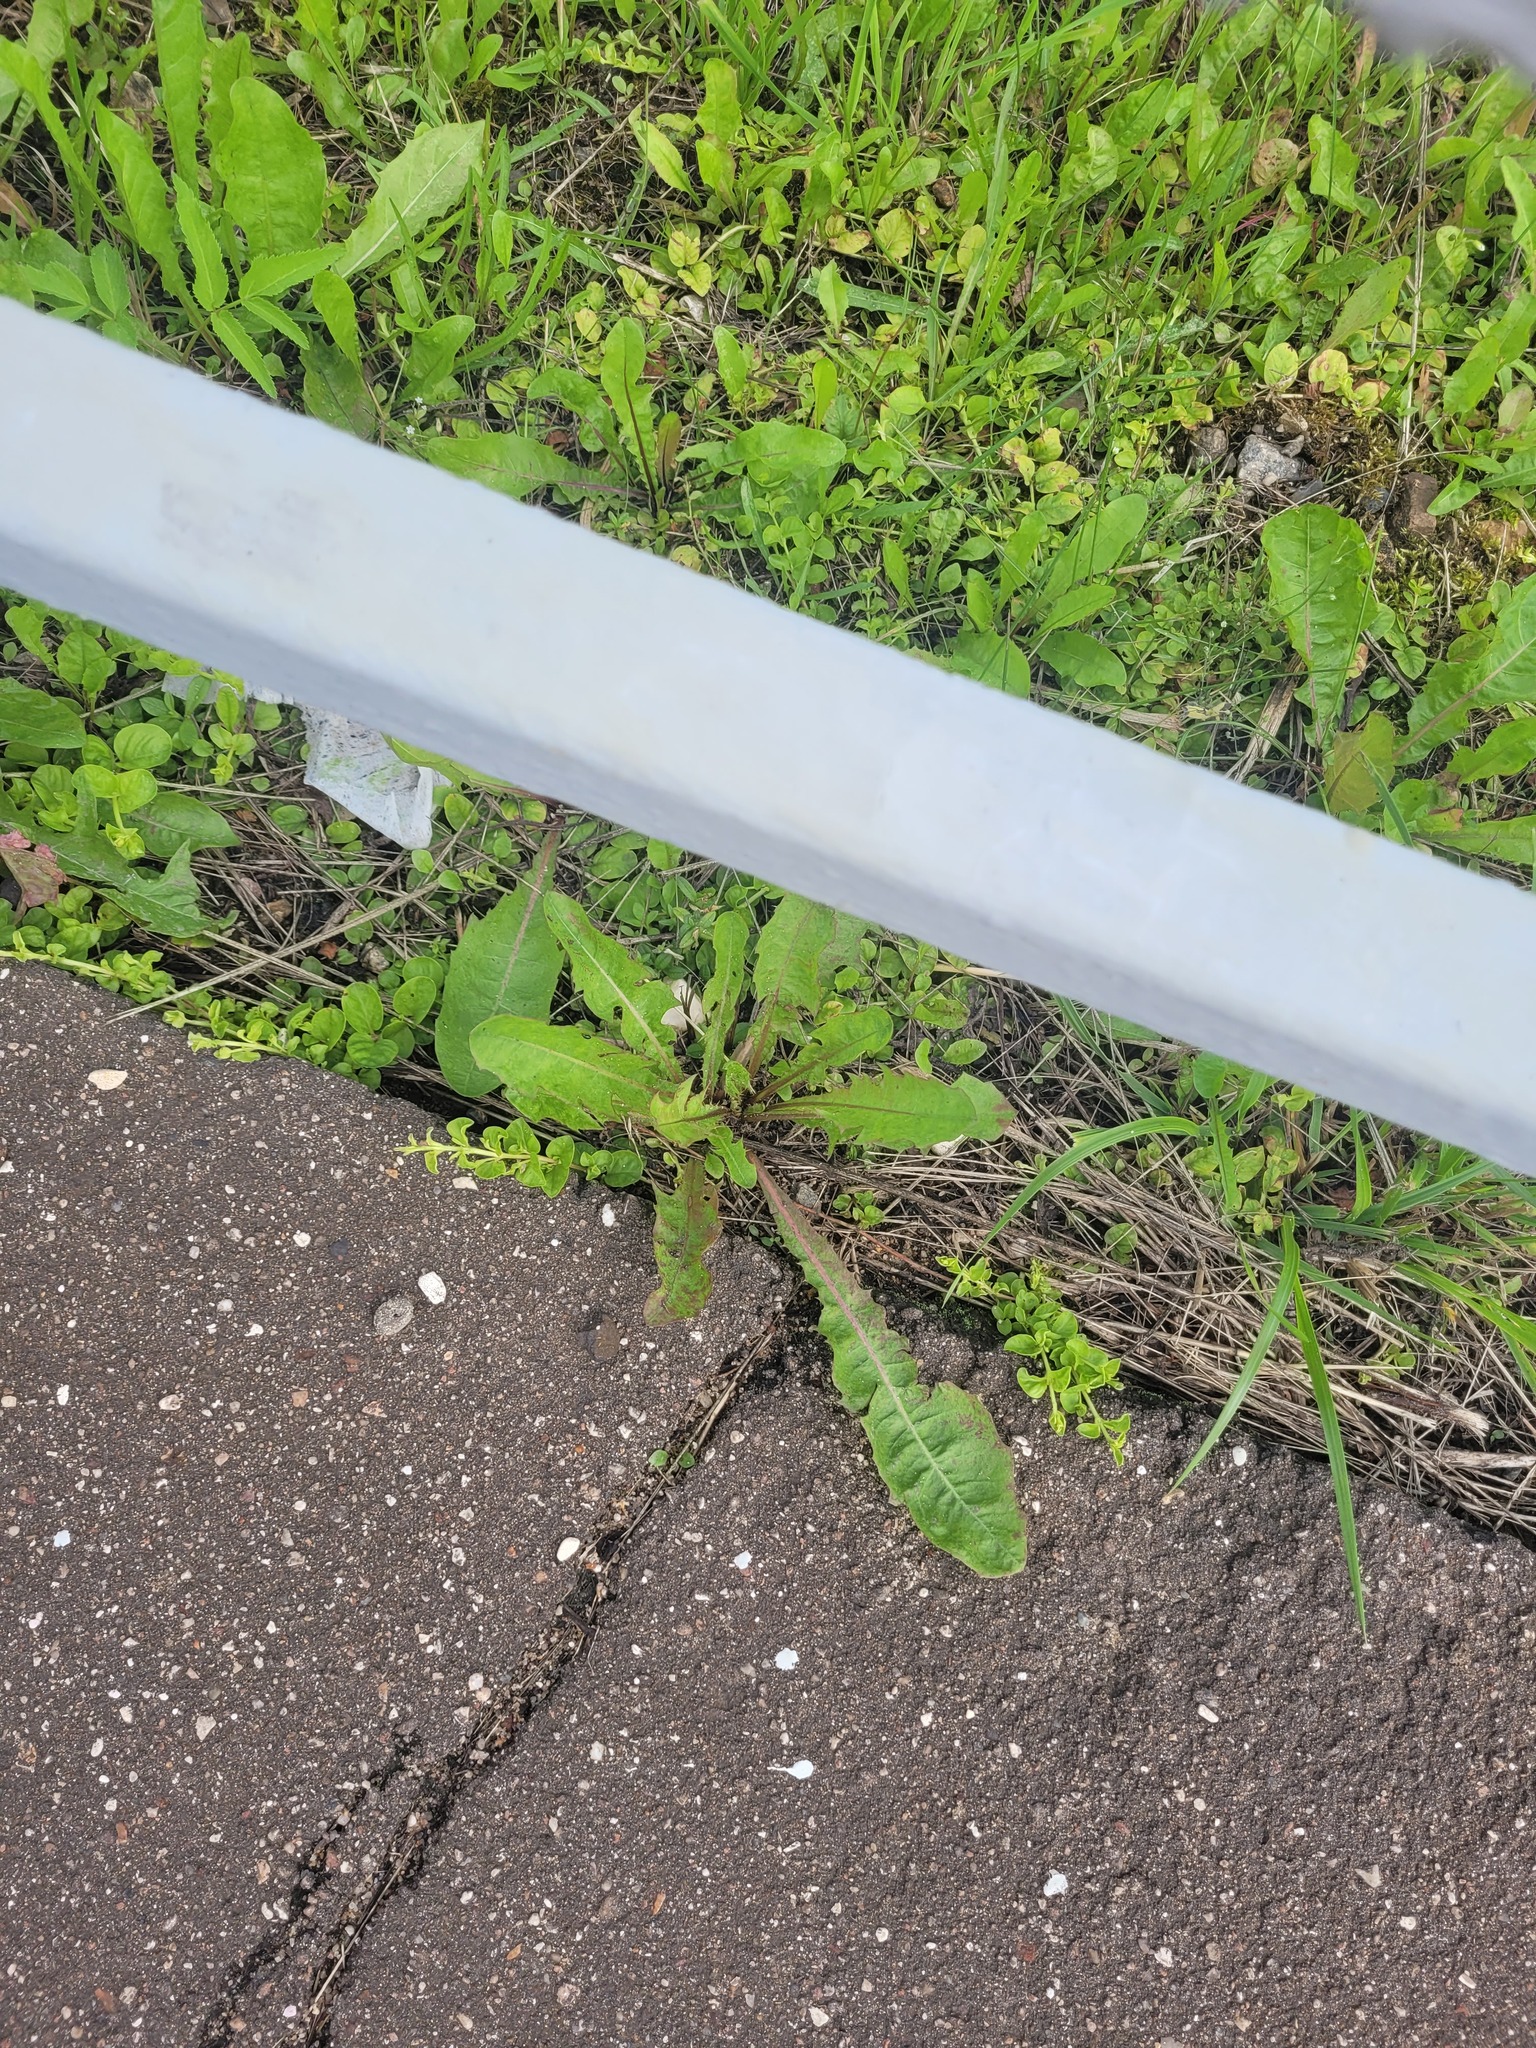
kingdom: Plantae
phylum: Tracheophyta
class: Magnoliopsida
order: Asterales
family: Asteraceae
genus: Taraxacum
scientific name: Taraxacum officinale
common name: Common dandelion
